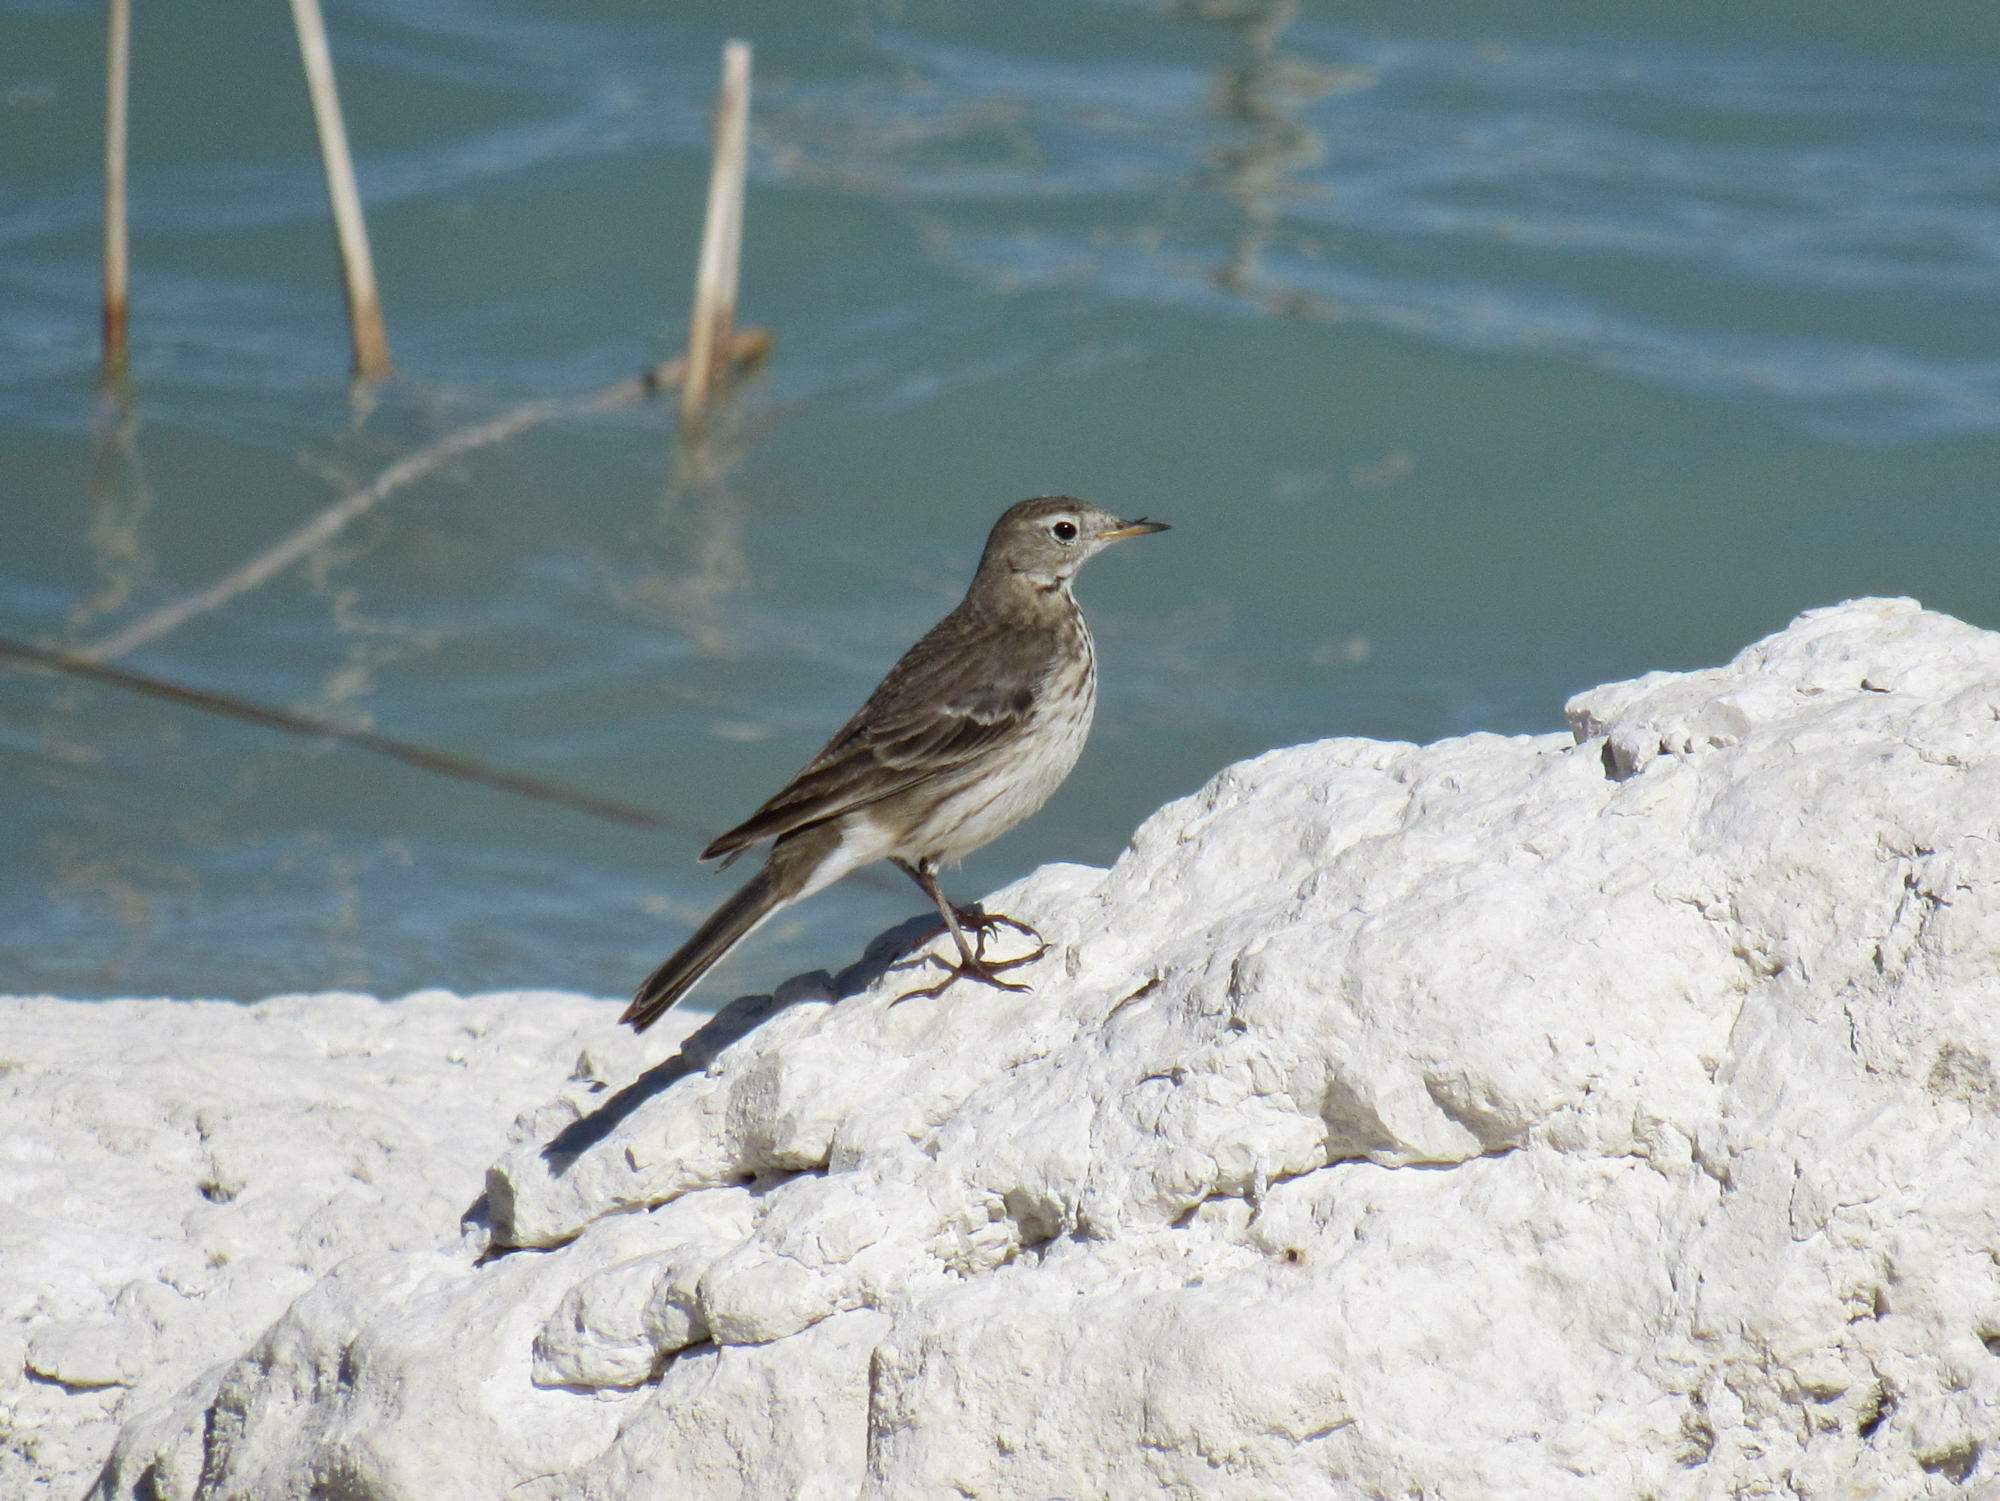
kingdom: Animalia
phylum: Chordata
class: Aves
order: Passeriformes
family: Motacillidae
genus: Anthus
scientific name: Anthus rubescens
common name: Buff-bellied pipit
